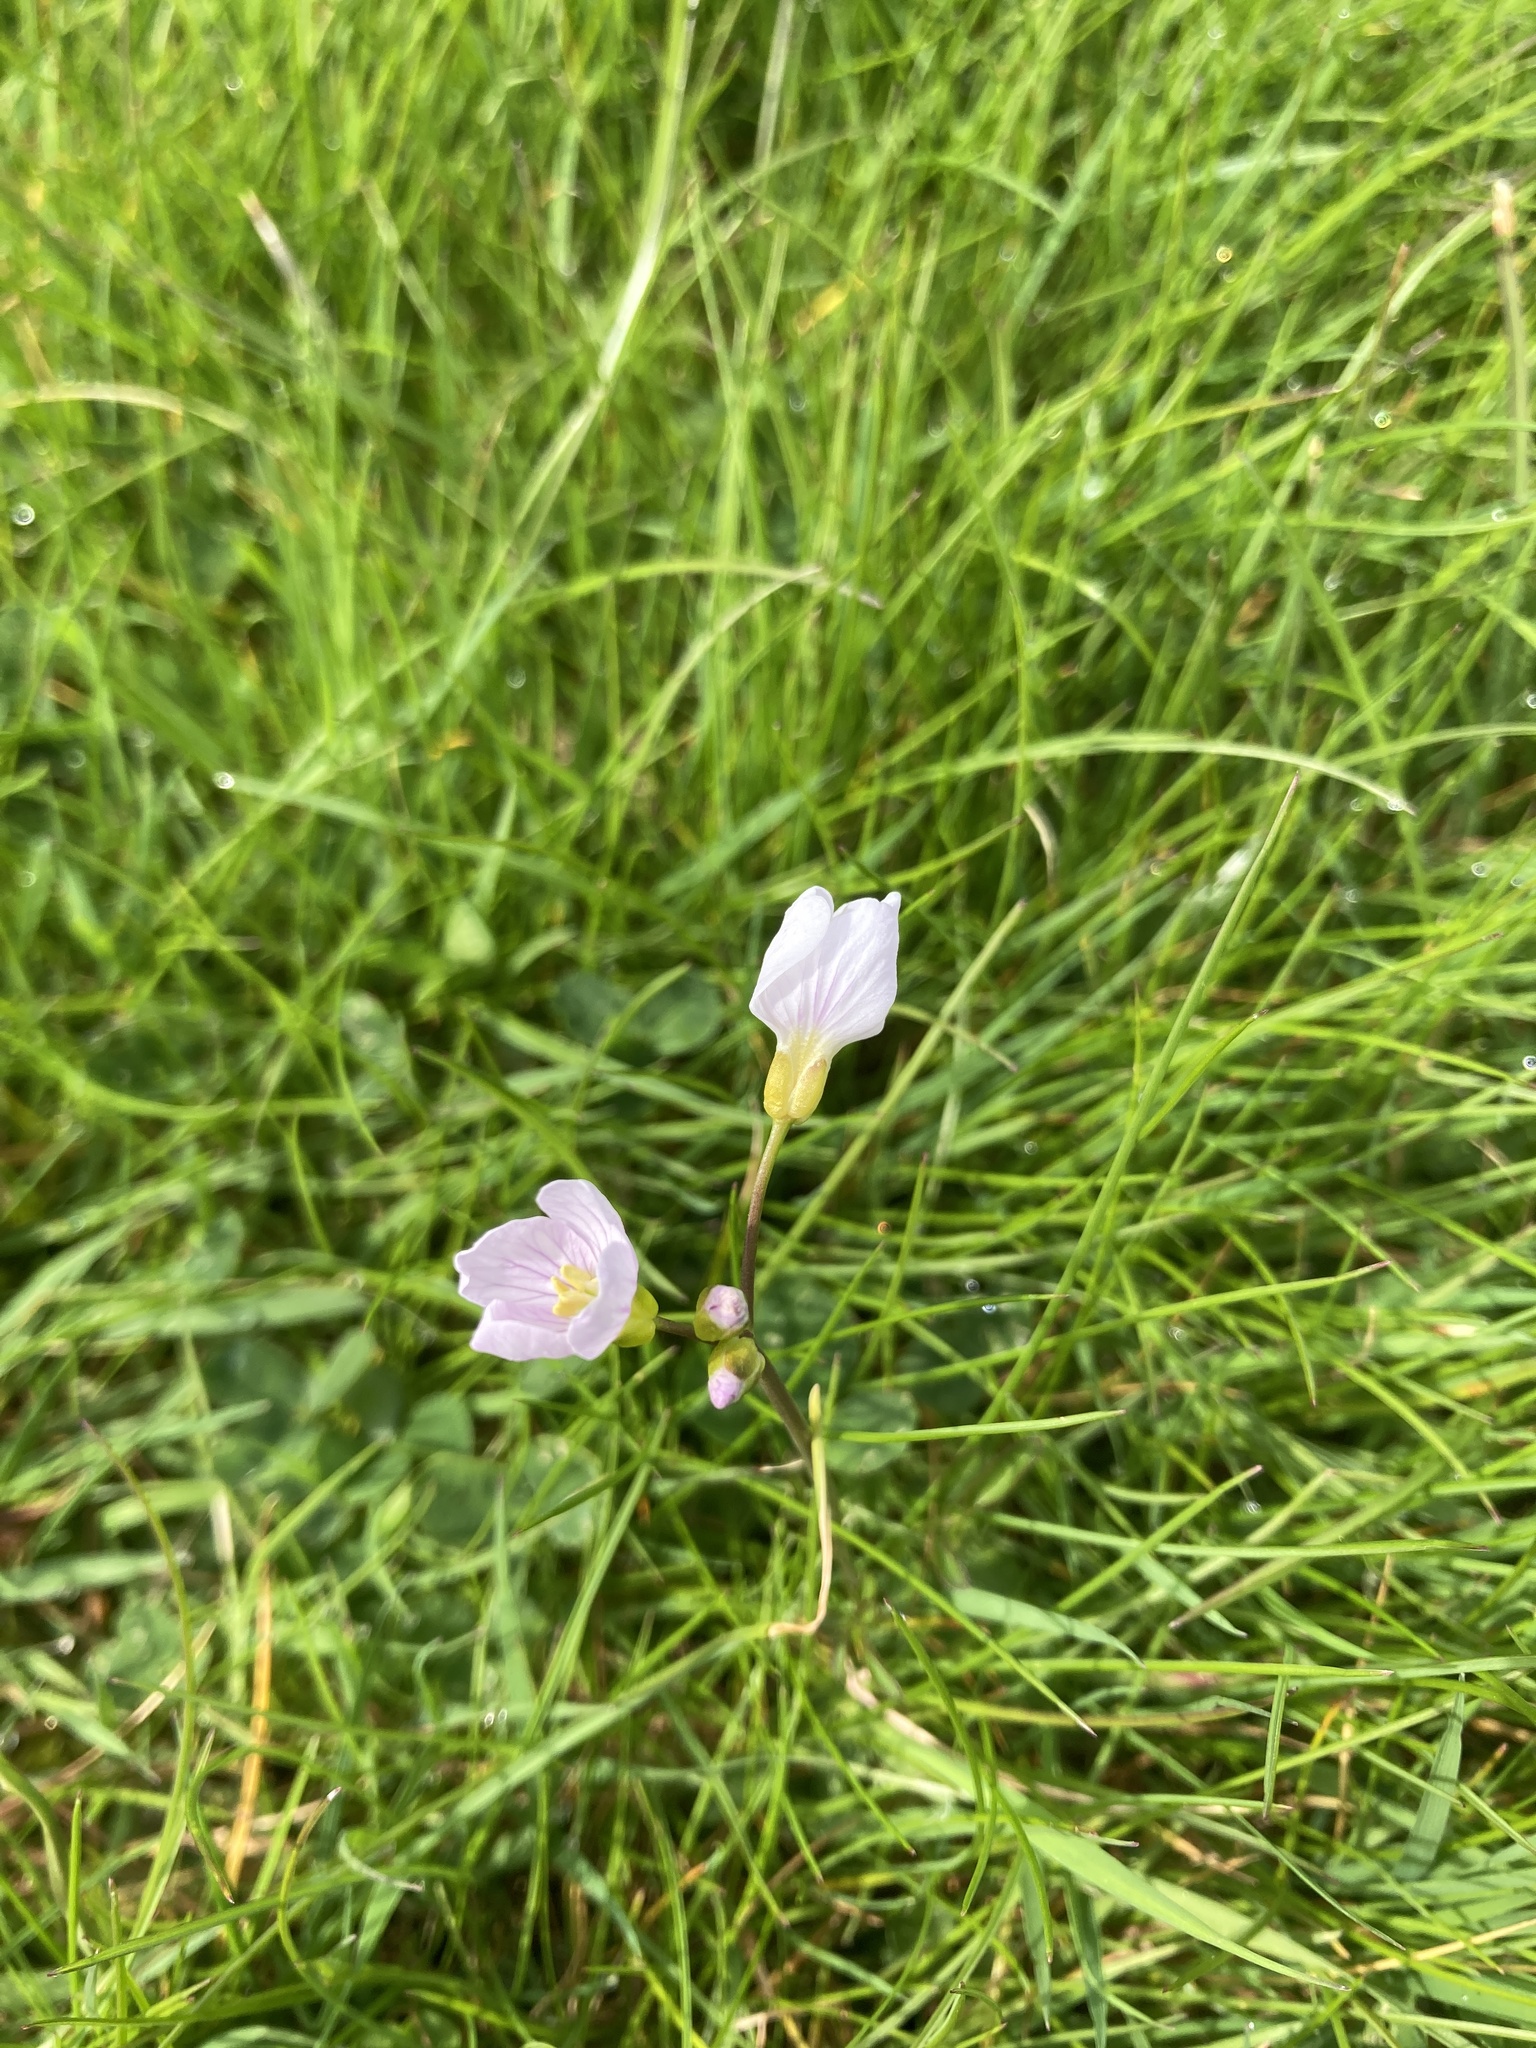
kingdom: Plantae
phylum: Tracheophyta
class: Magnoliopsida
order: Brassicales
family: Brassicaceae
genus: Cardamine
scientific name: Cardamine pratensis
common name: Cuckoo flower
